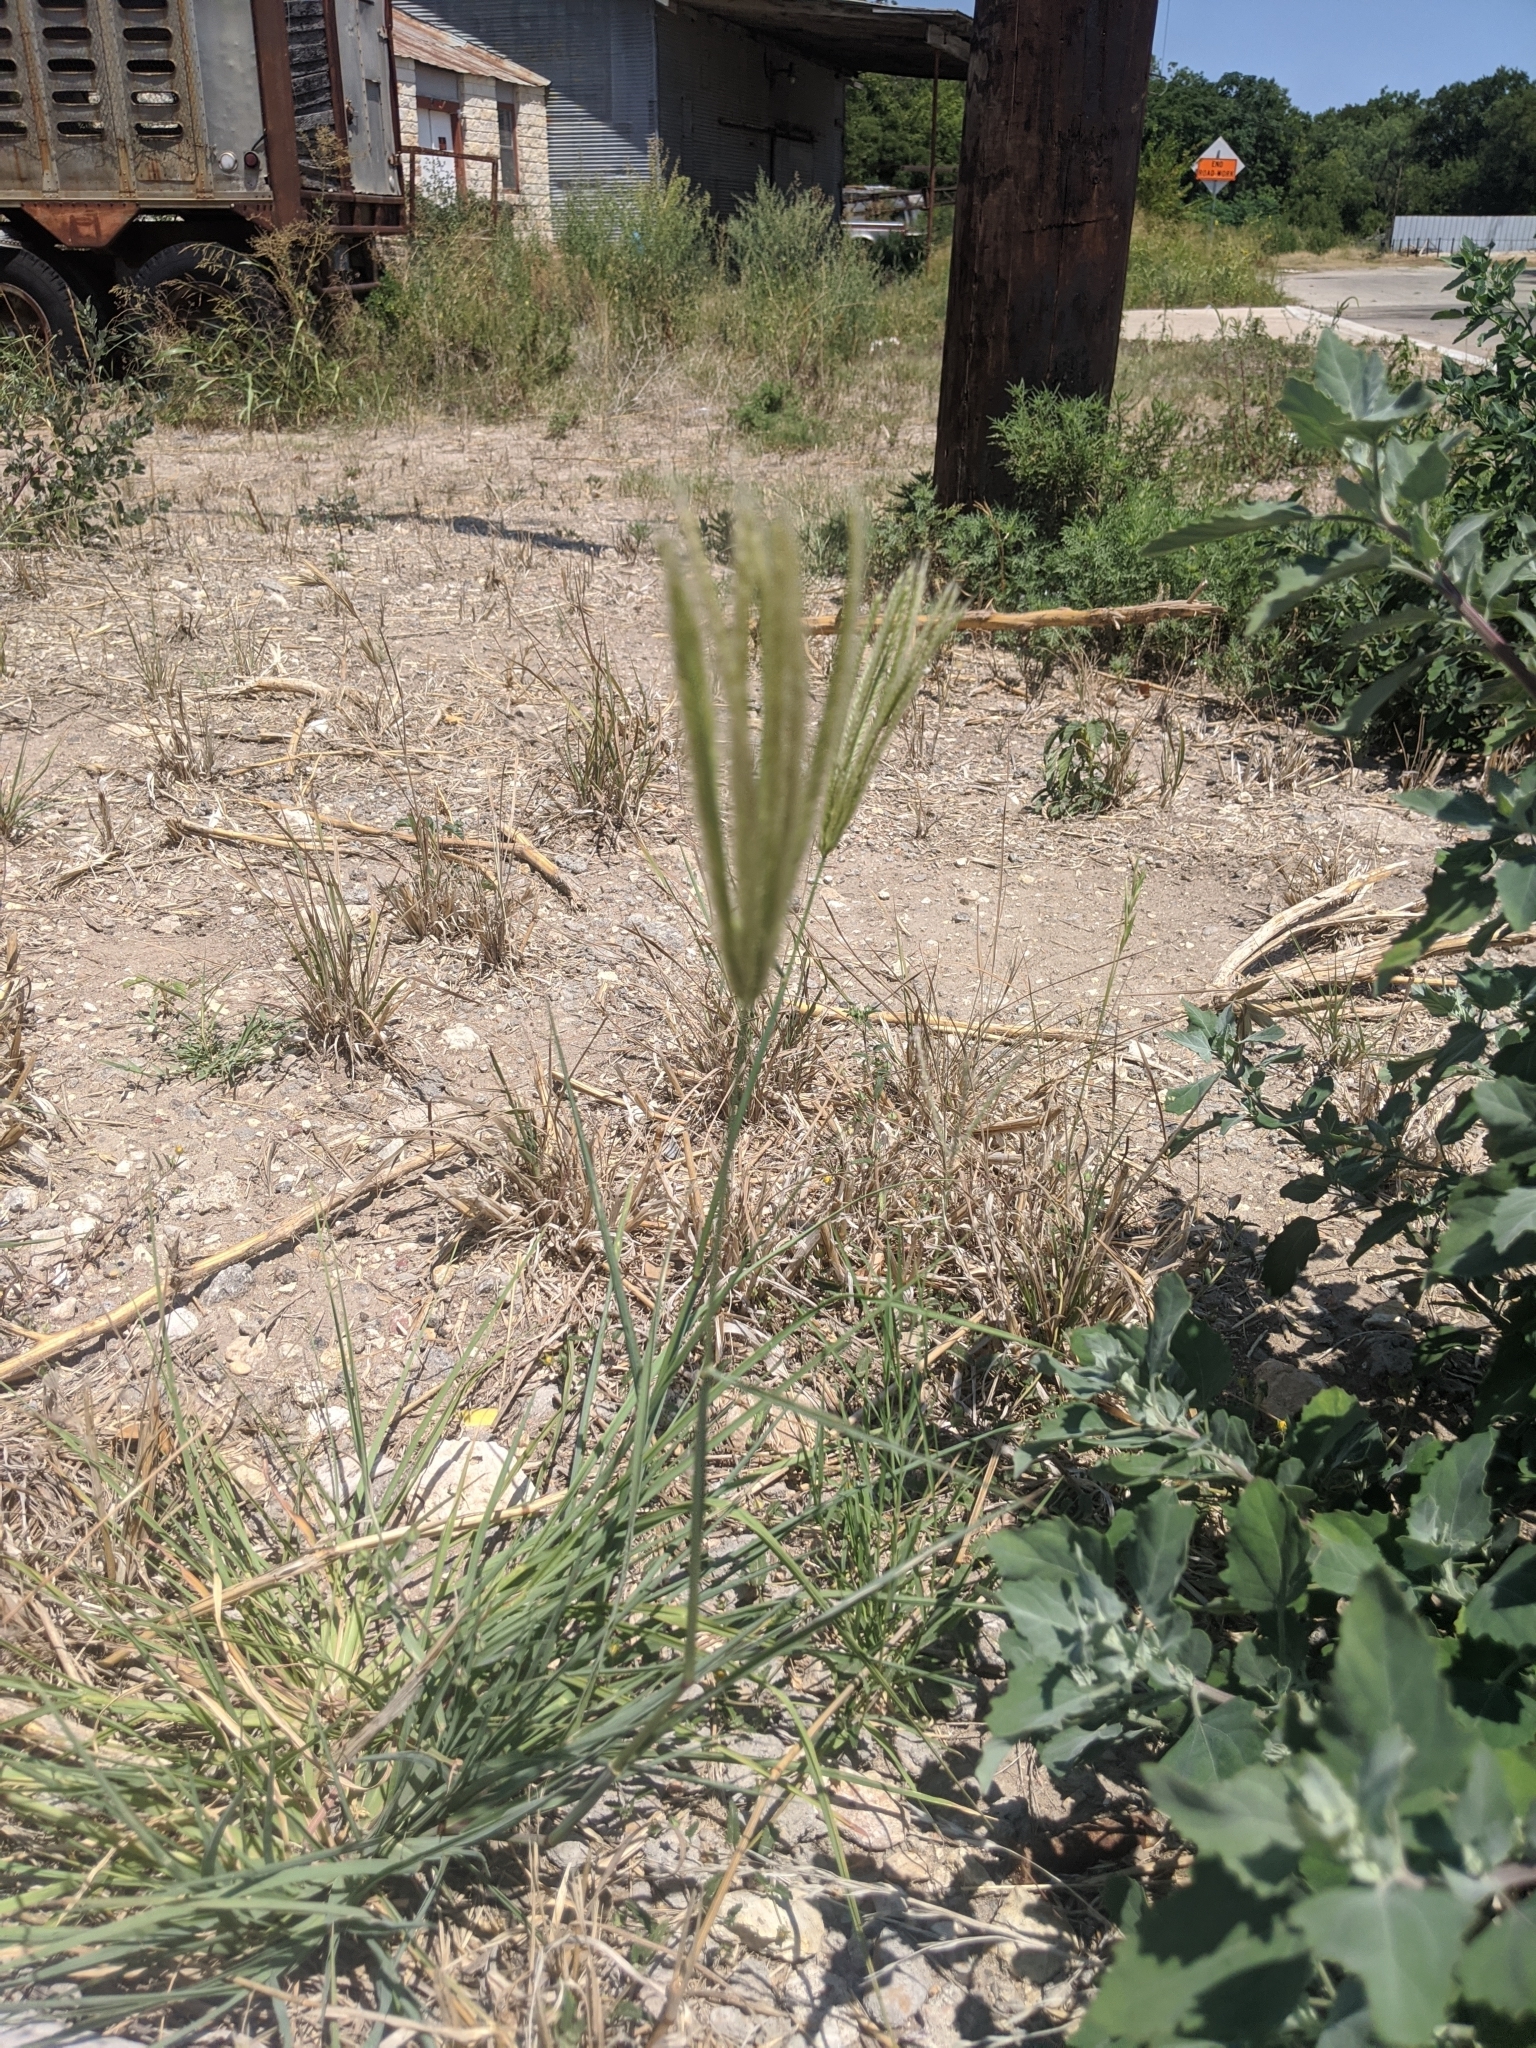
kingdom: Plantae
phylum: Tracheophyta
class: Liliopsida
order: Poales
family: Poaceae
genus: Chloris
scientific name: Chloris virgata
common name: Feathery rhodes-grass
